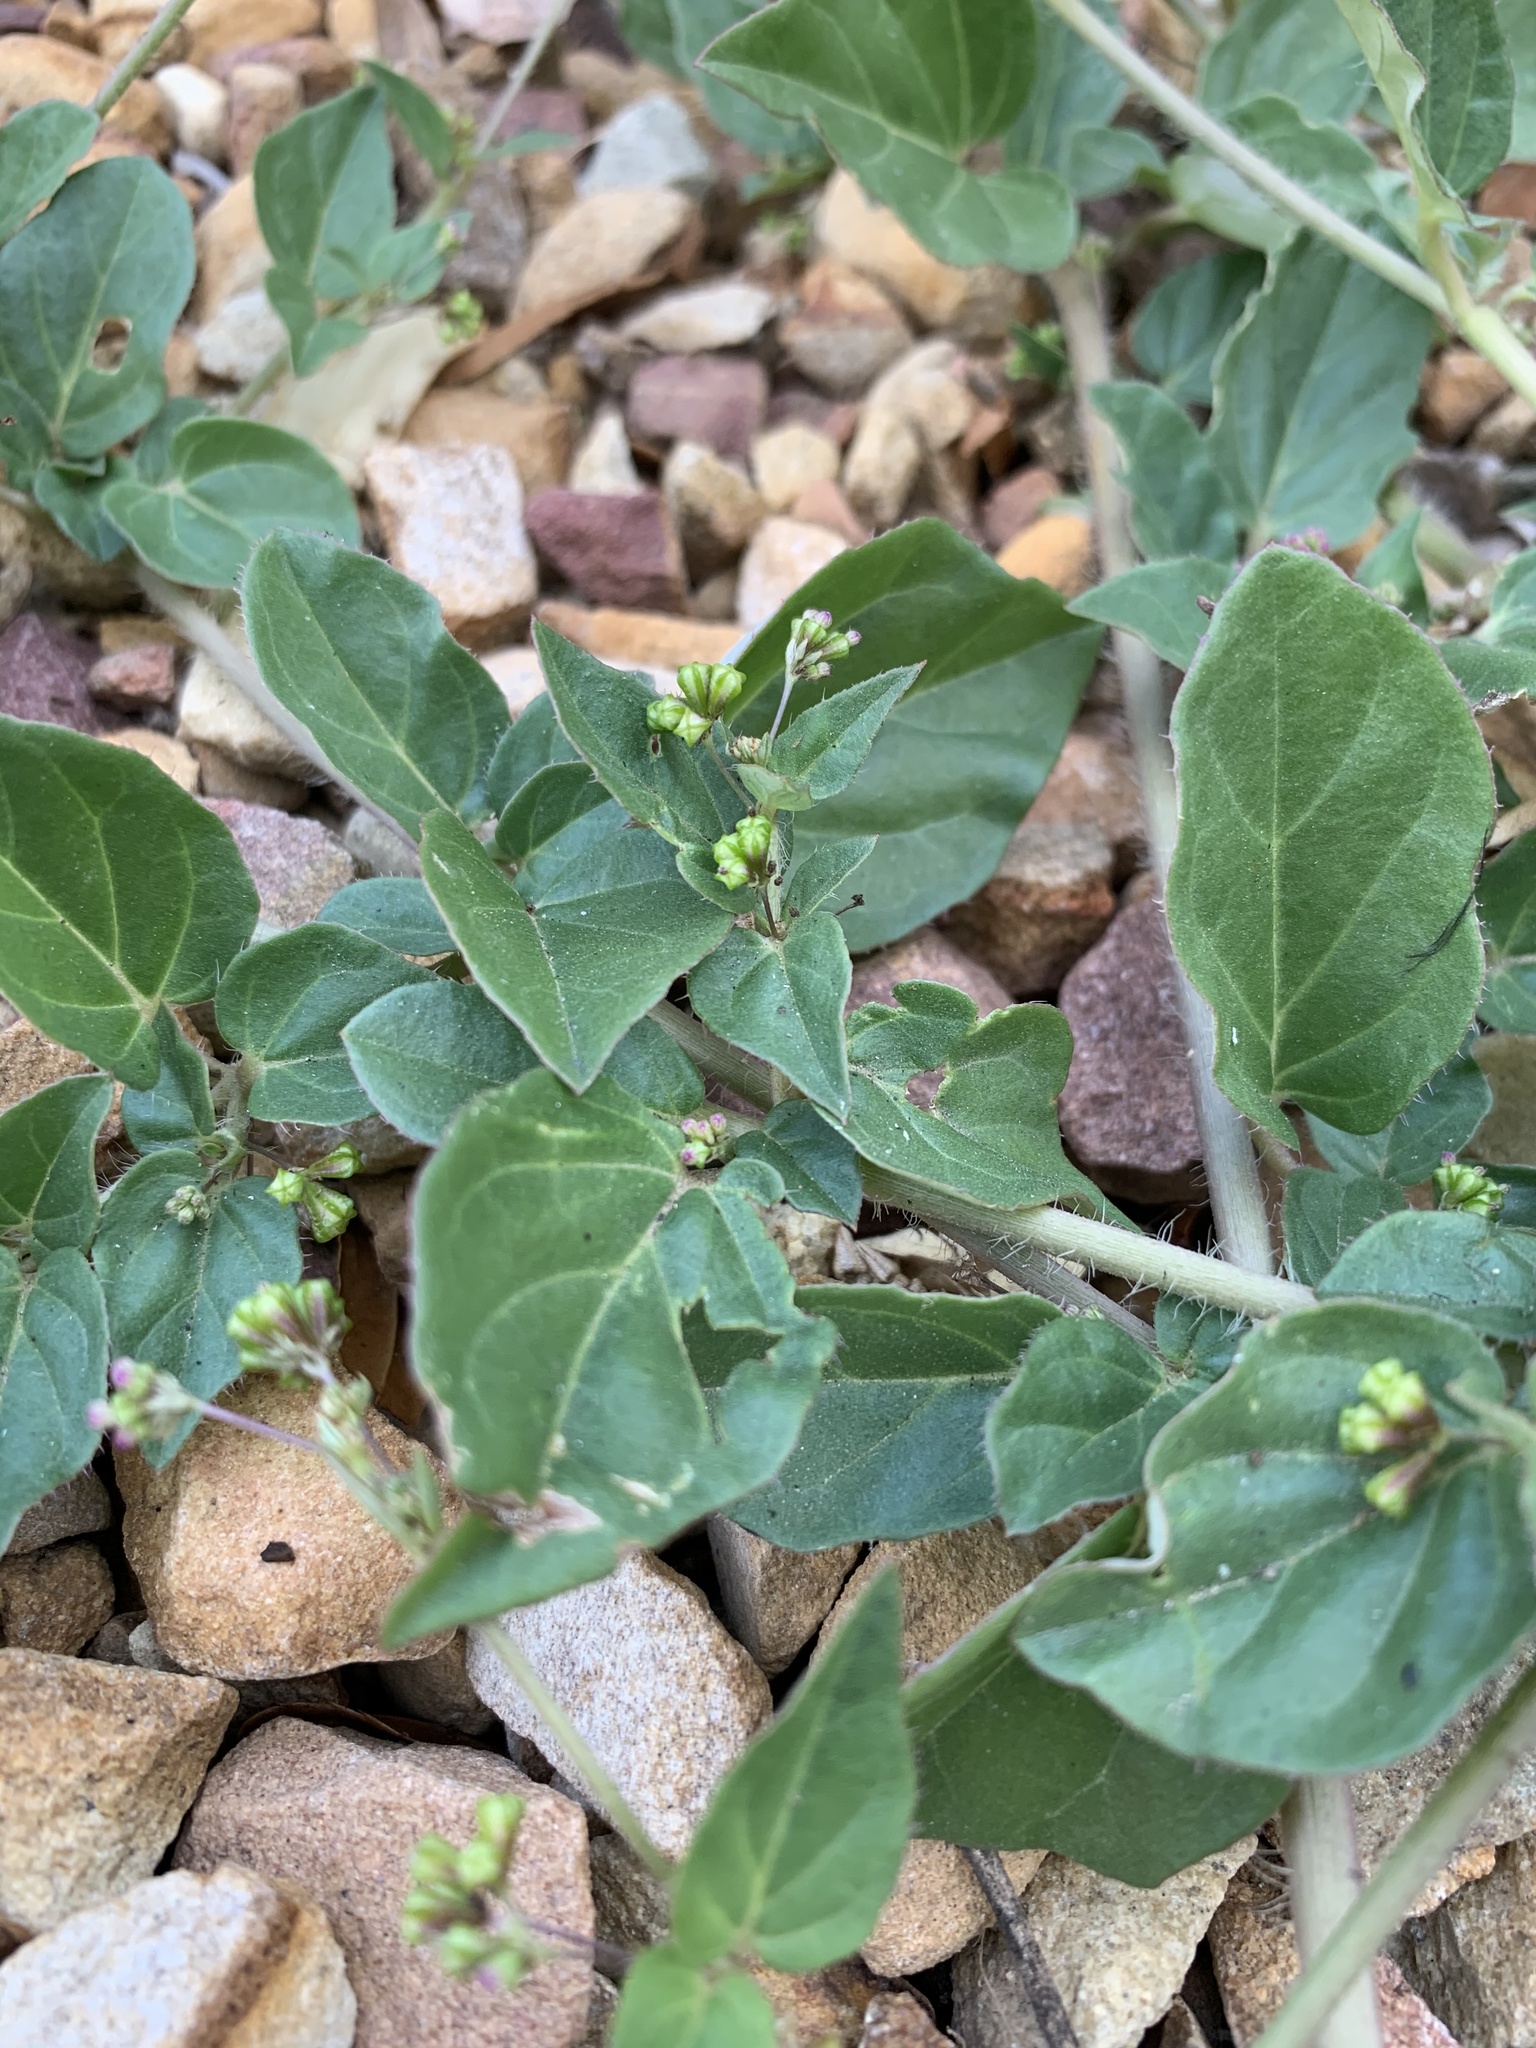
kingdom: Plantae
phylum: Tracheophyta
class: Magnoliopsida
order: Caryophyllales
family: Nyctaginaceae
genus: Boerhavia
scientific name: Boerhavia erecta
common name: Erect spiderling
